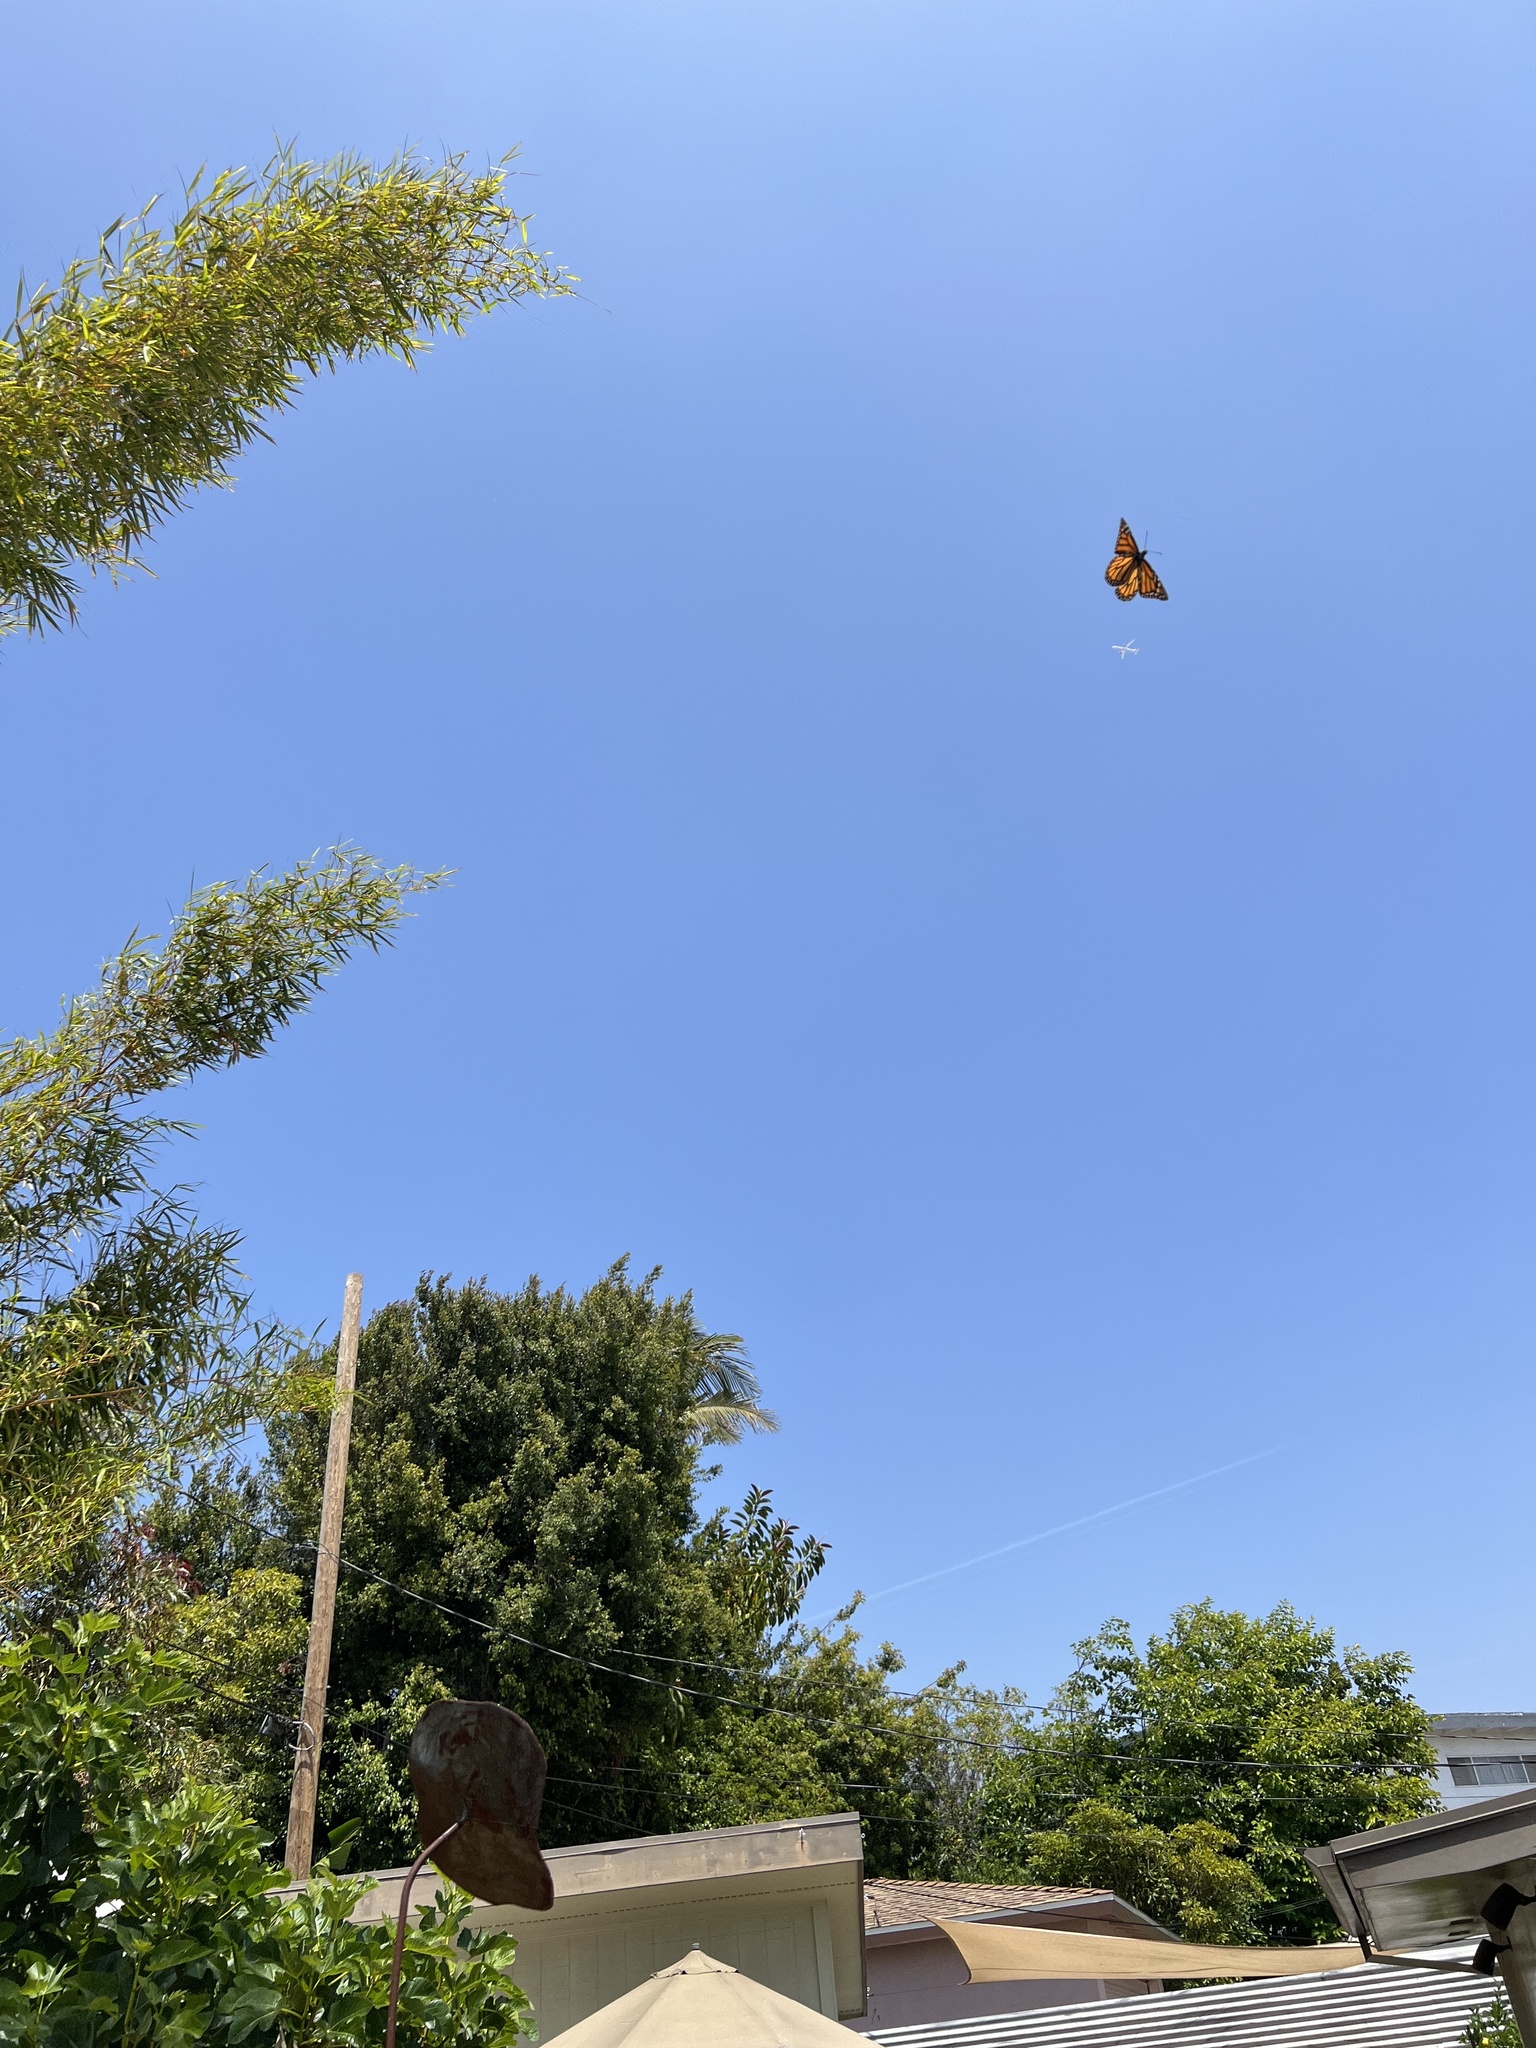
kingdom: Animalia
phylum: Arthropoda
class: Insecta
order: Lepidoptera
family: Nymphalidae
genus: Danaus
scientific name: Danaus plexippus
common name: Monarch
